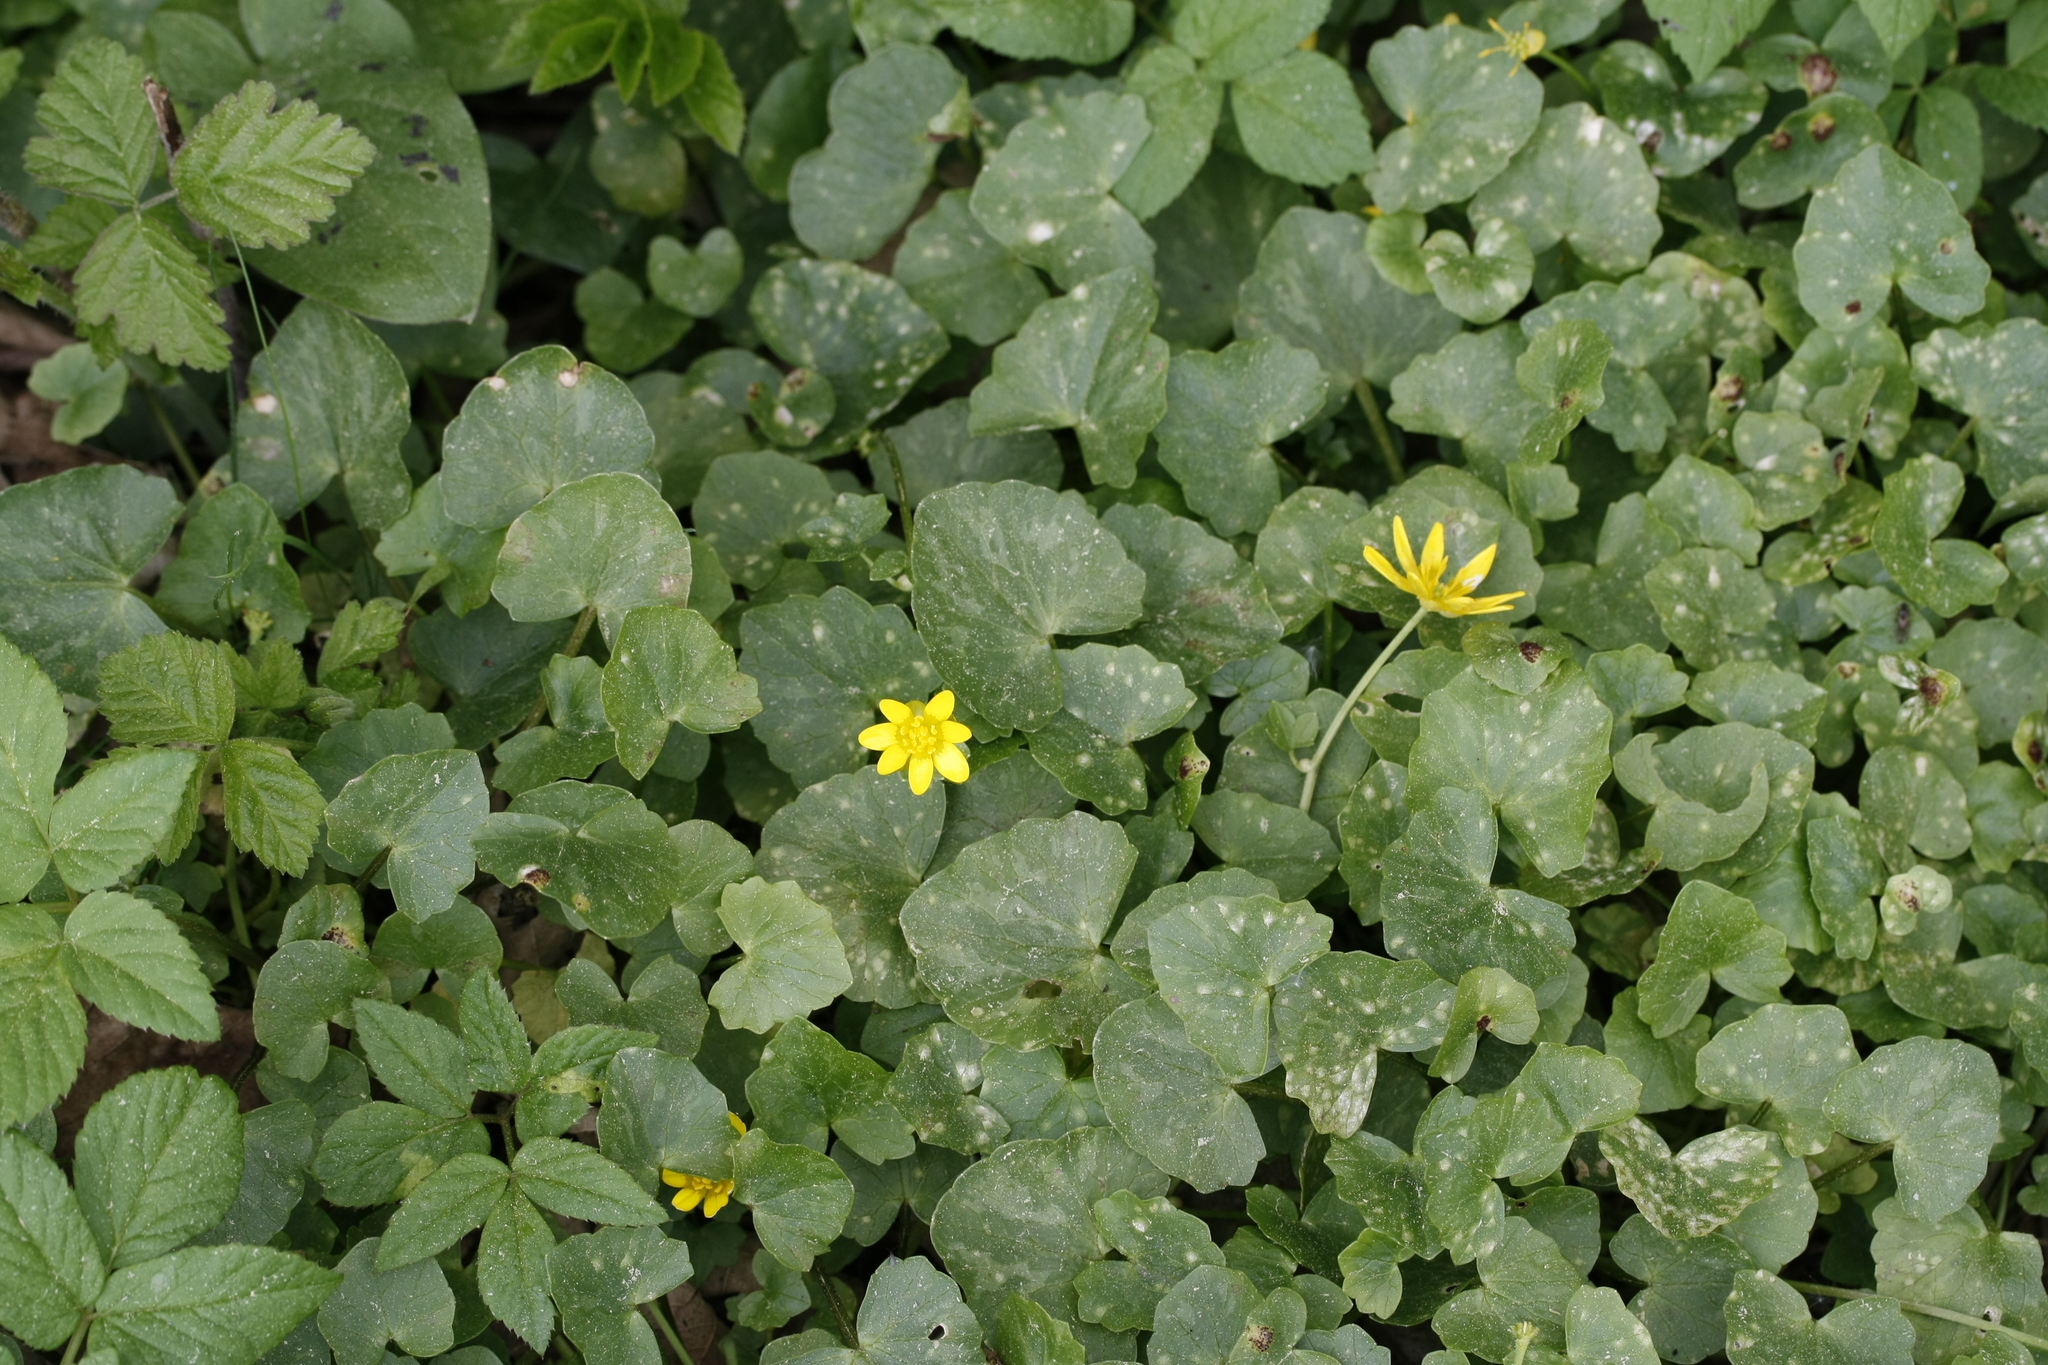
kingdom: Plantae
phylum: Tracheophyta
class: Magnoliopsida
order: Ranunculales
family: Ranunculaceae
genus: Ficaria
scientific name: Ficaria verna
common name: Lesser celandine
